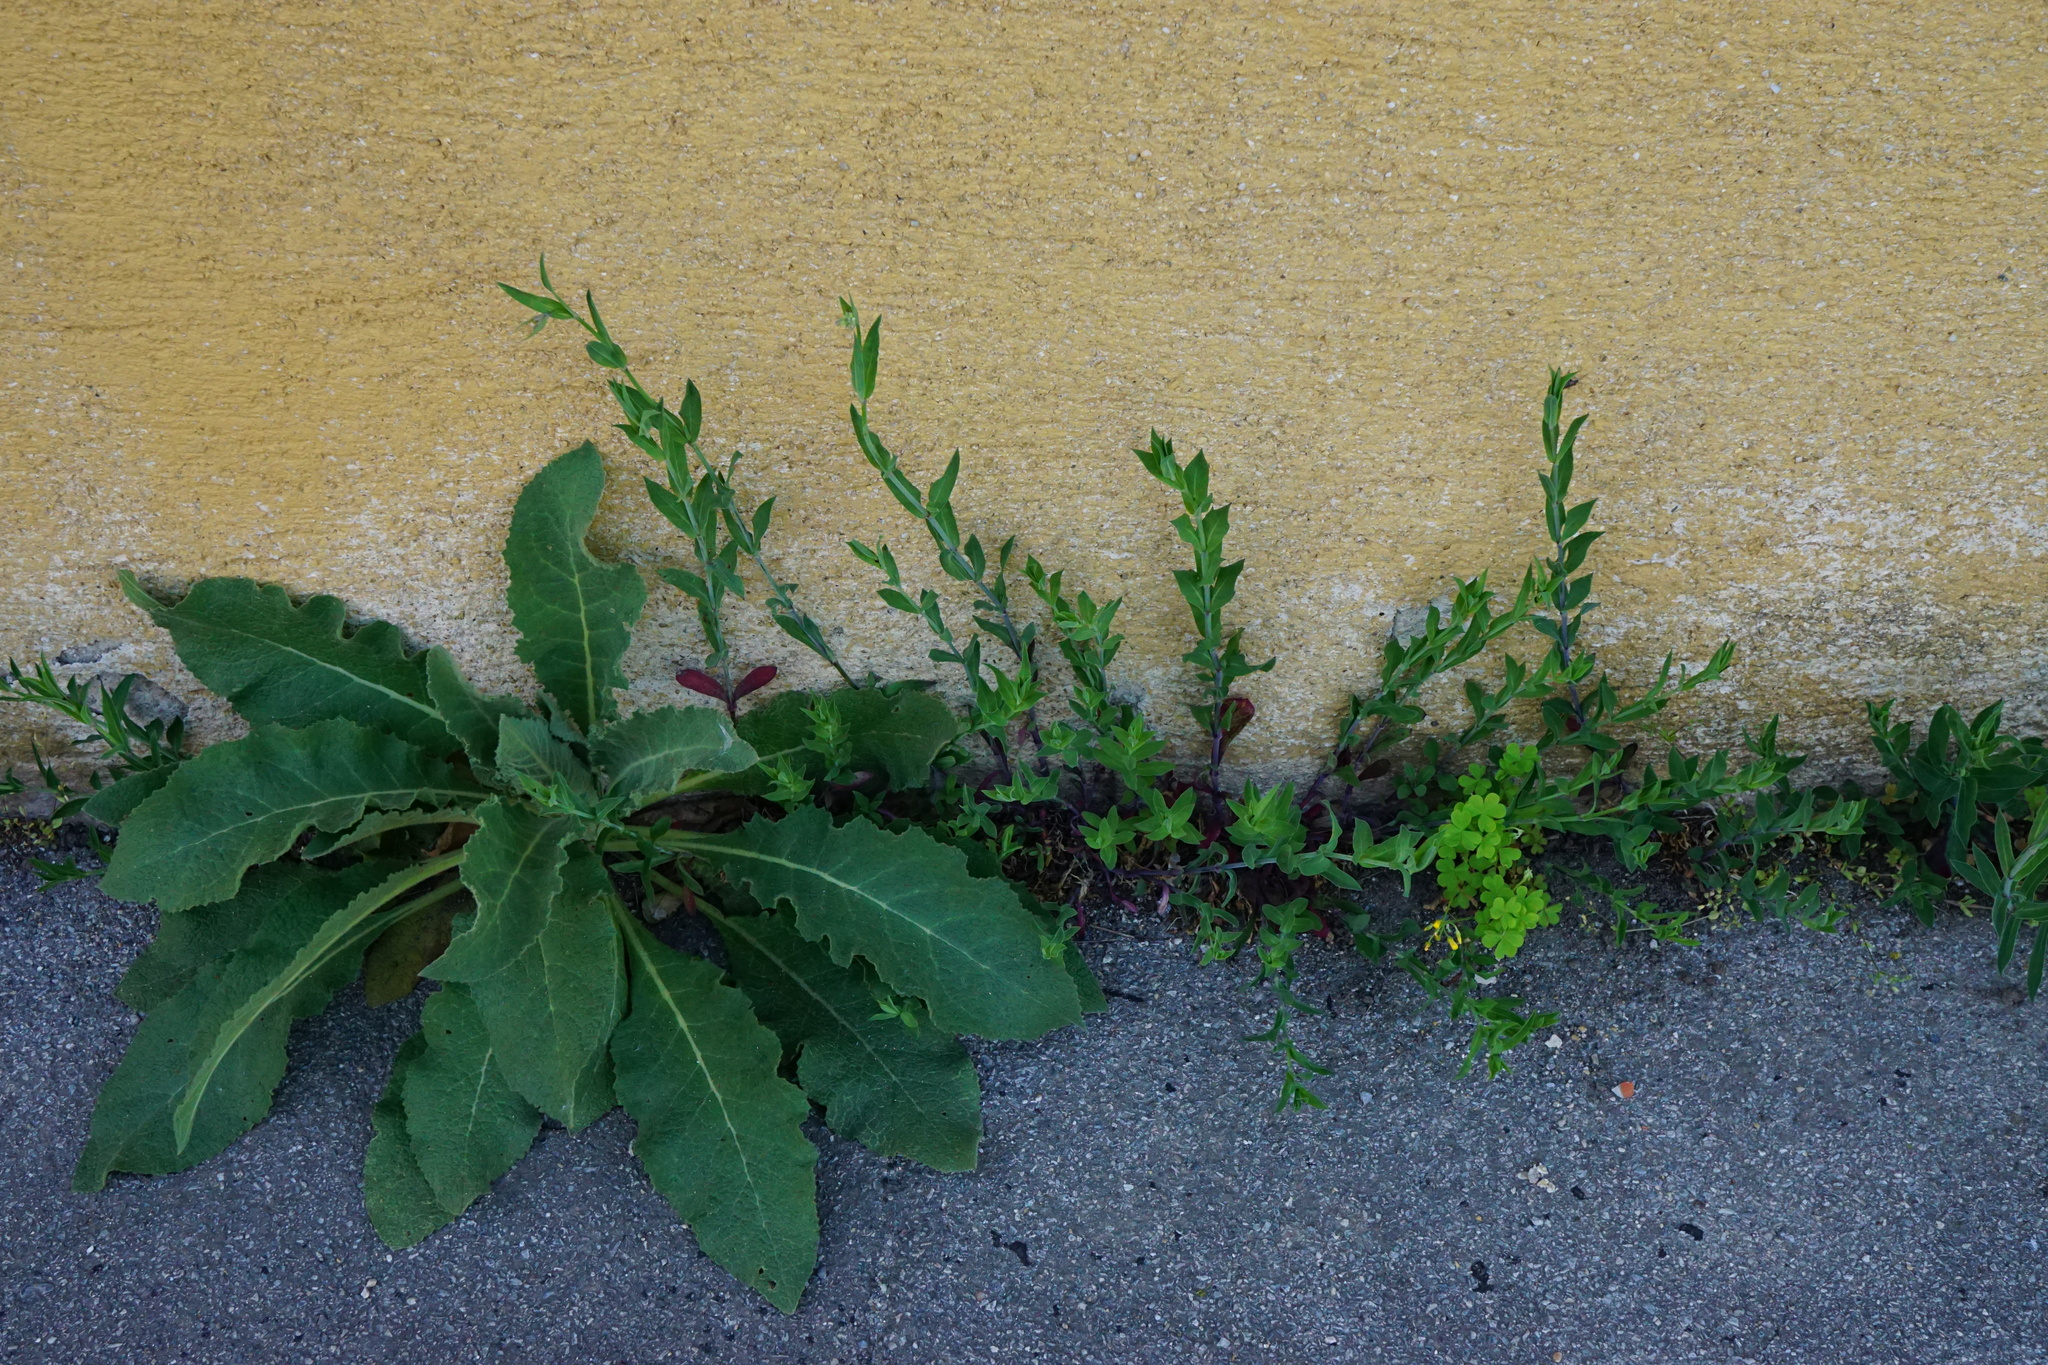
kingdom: Plantae
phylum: Tracheophyta
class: Magnoliopsida
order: Caryophyllales
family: Caryophyllaceae
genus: Silene
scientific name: Silene vulgaris
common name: Bladder campion
